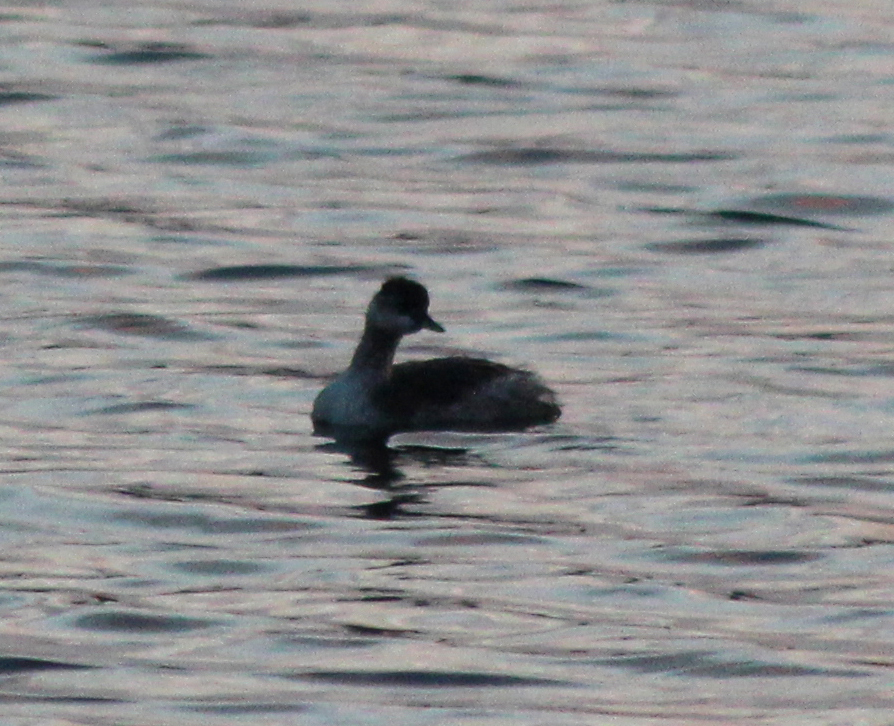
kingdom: Animalia
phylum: Chordata
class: Aves
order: Podicipediformes
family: Podicipedidae
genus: Podiceps
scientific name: Podiceps nigricollis
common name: Black-necked grebe
